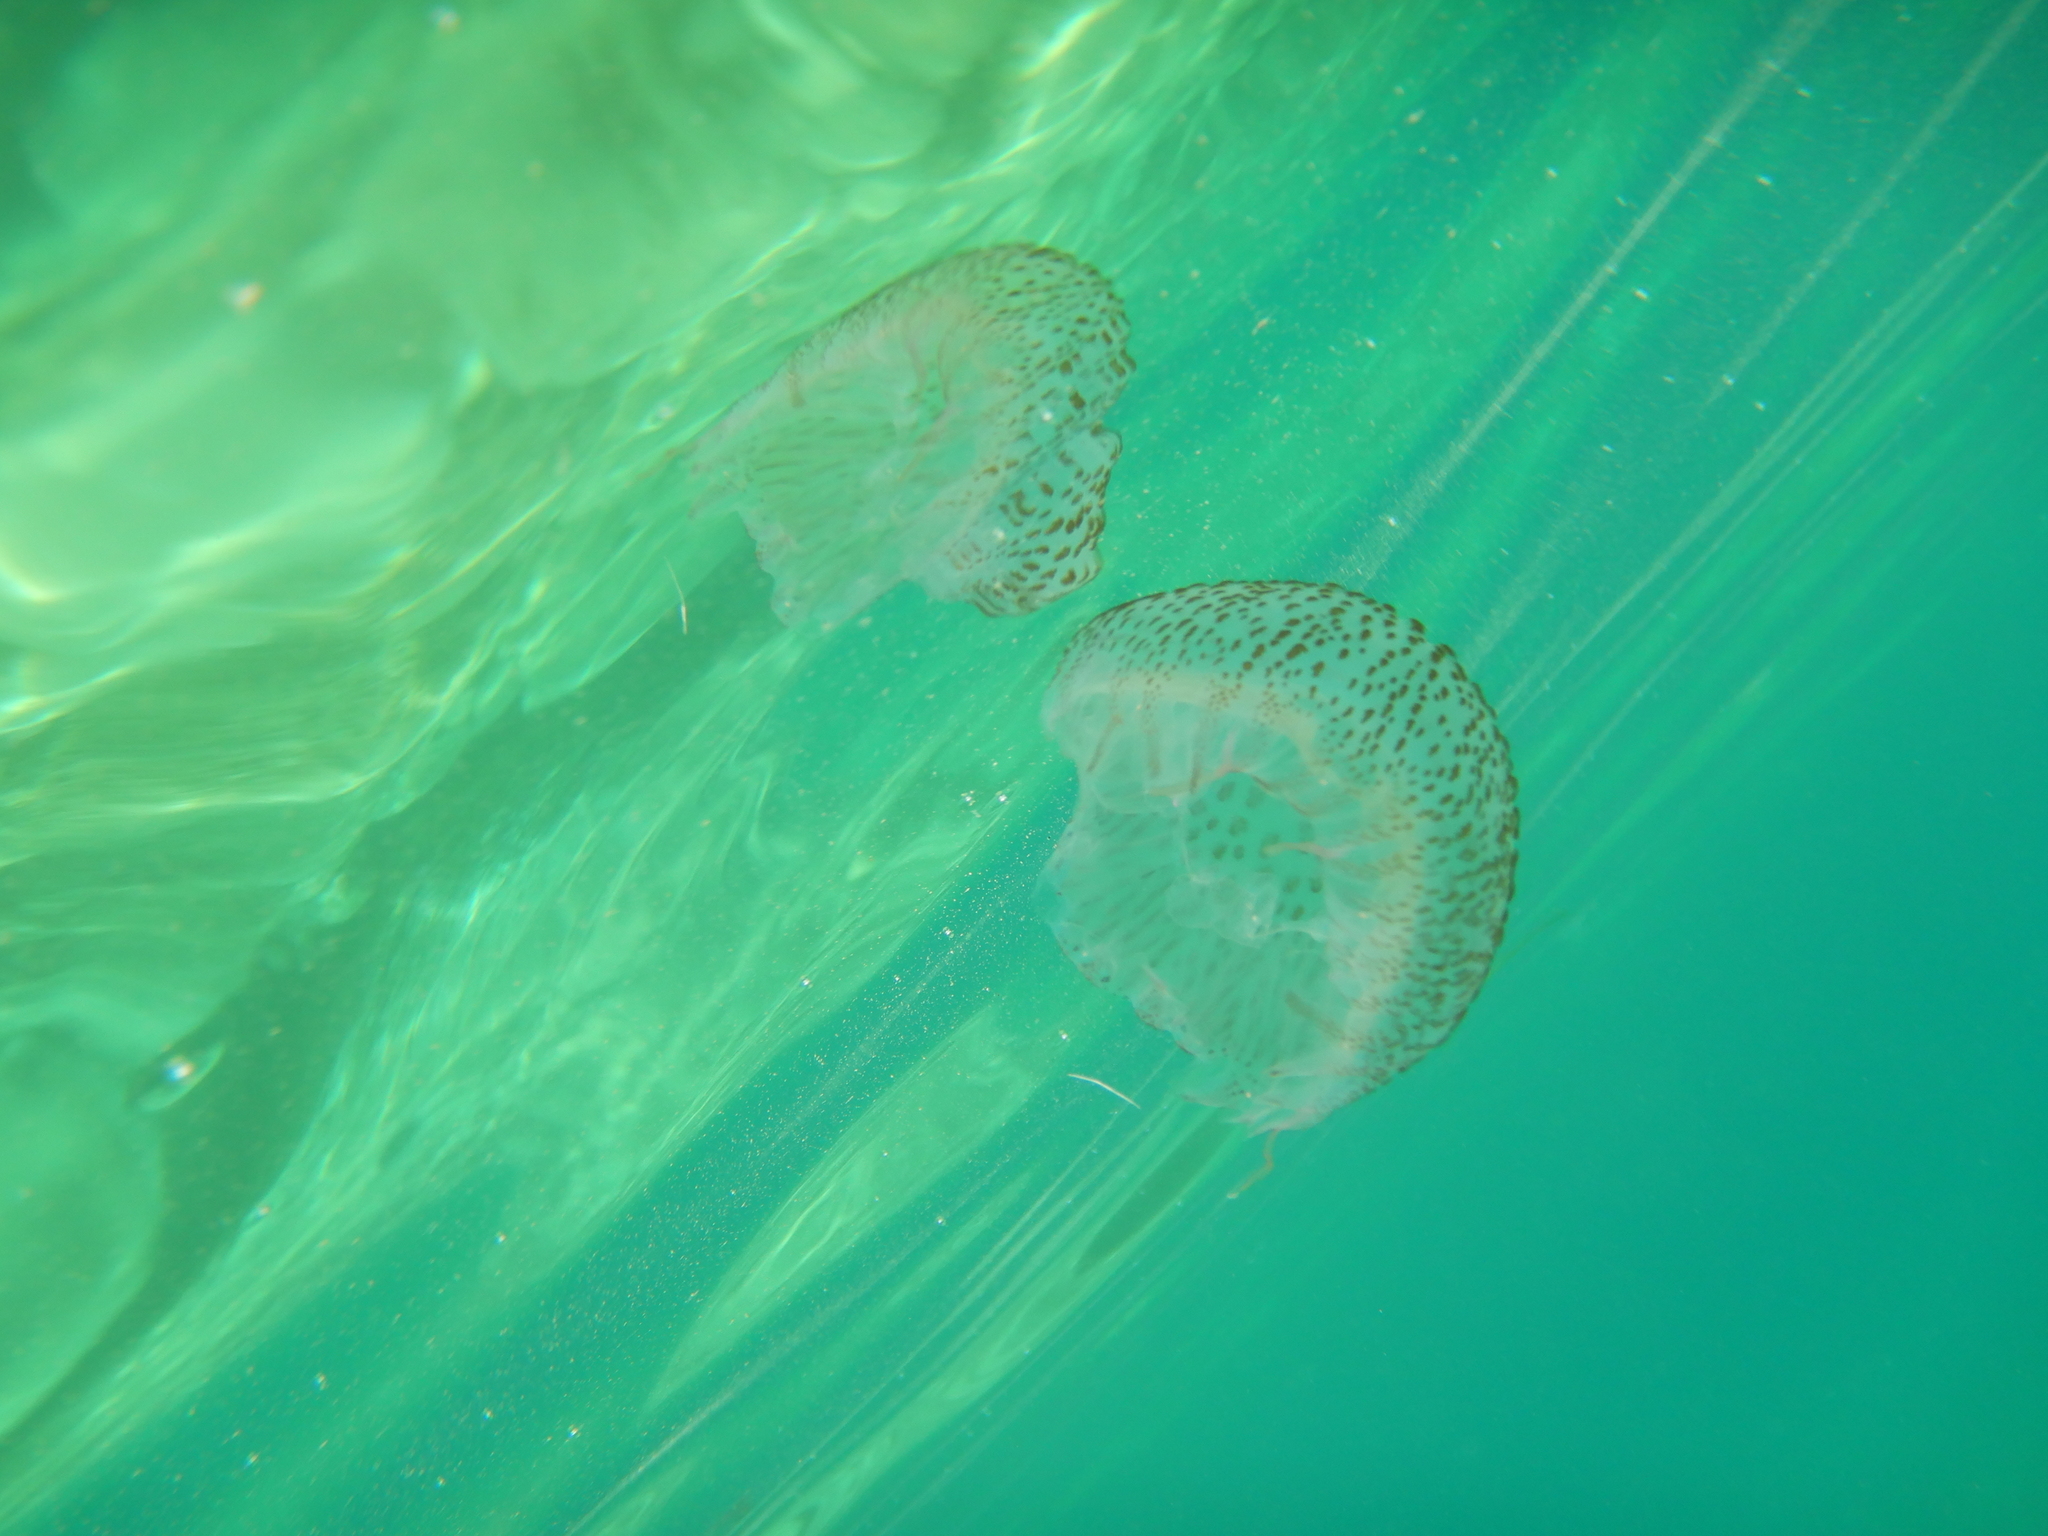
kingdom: Animalia
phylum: Cnidaria
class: Scyphozoa
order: Semaeostomeae
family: Pelagiidae
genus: Pelagia
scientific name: Pelagia noctiluca
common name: Mauve stinger
